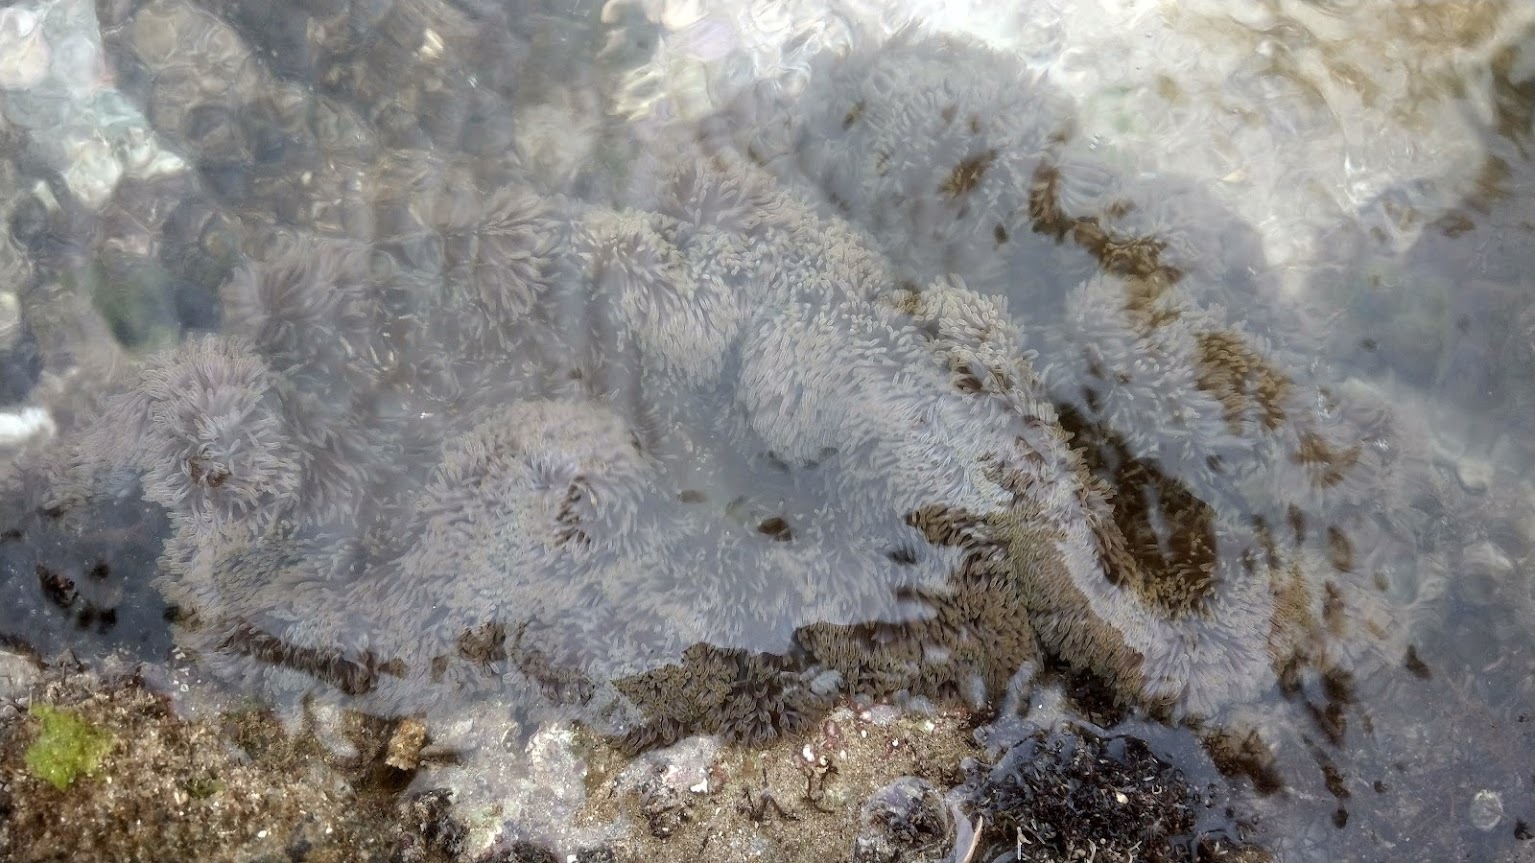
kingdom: Animalia
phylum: Cnidaria
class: Anthozoa
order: Actiniaria
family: Stichodactylidae
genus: Stichodactyla
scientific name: Stichodactyla gigantea
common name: Giant anemone
